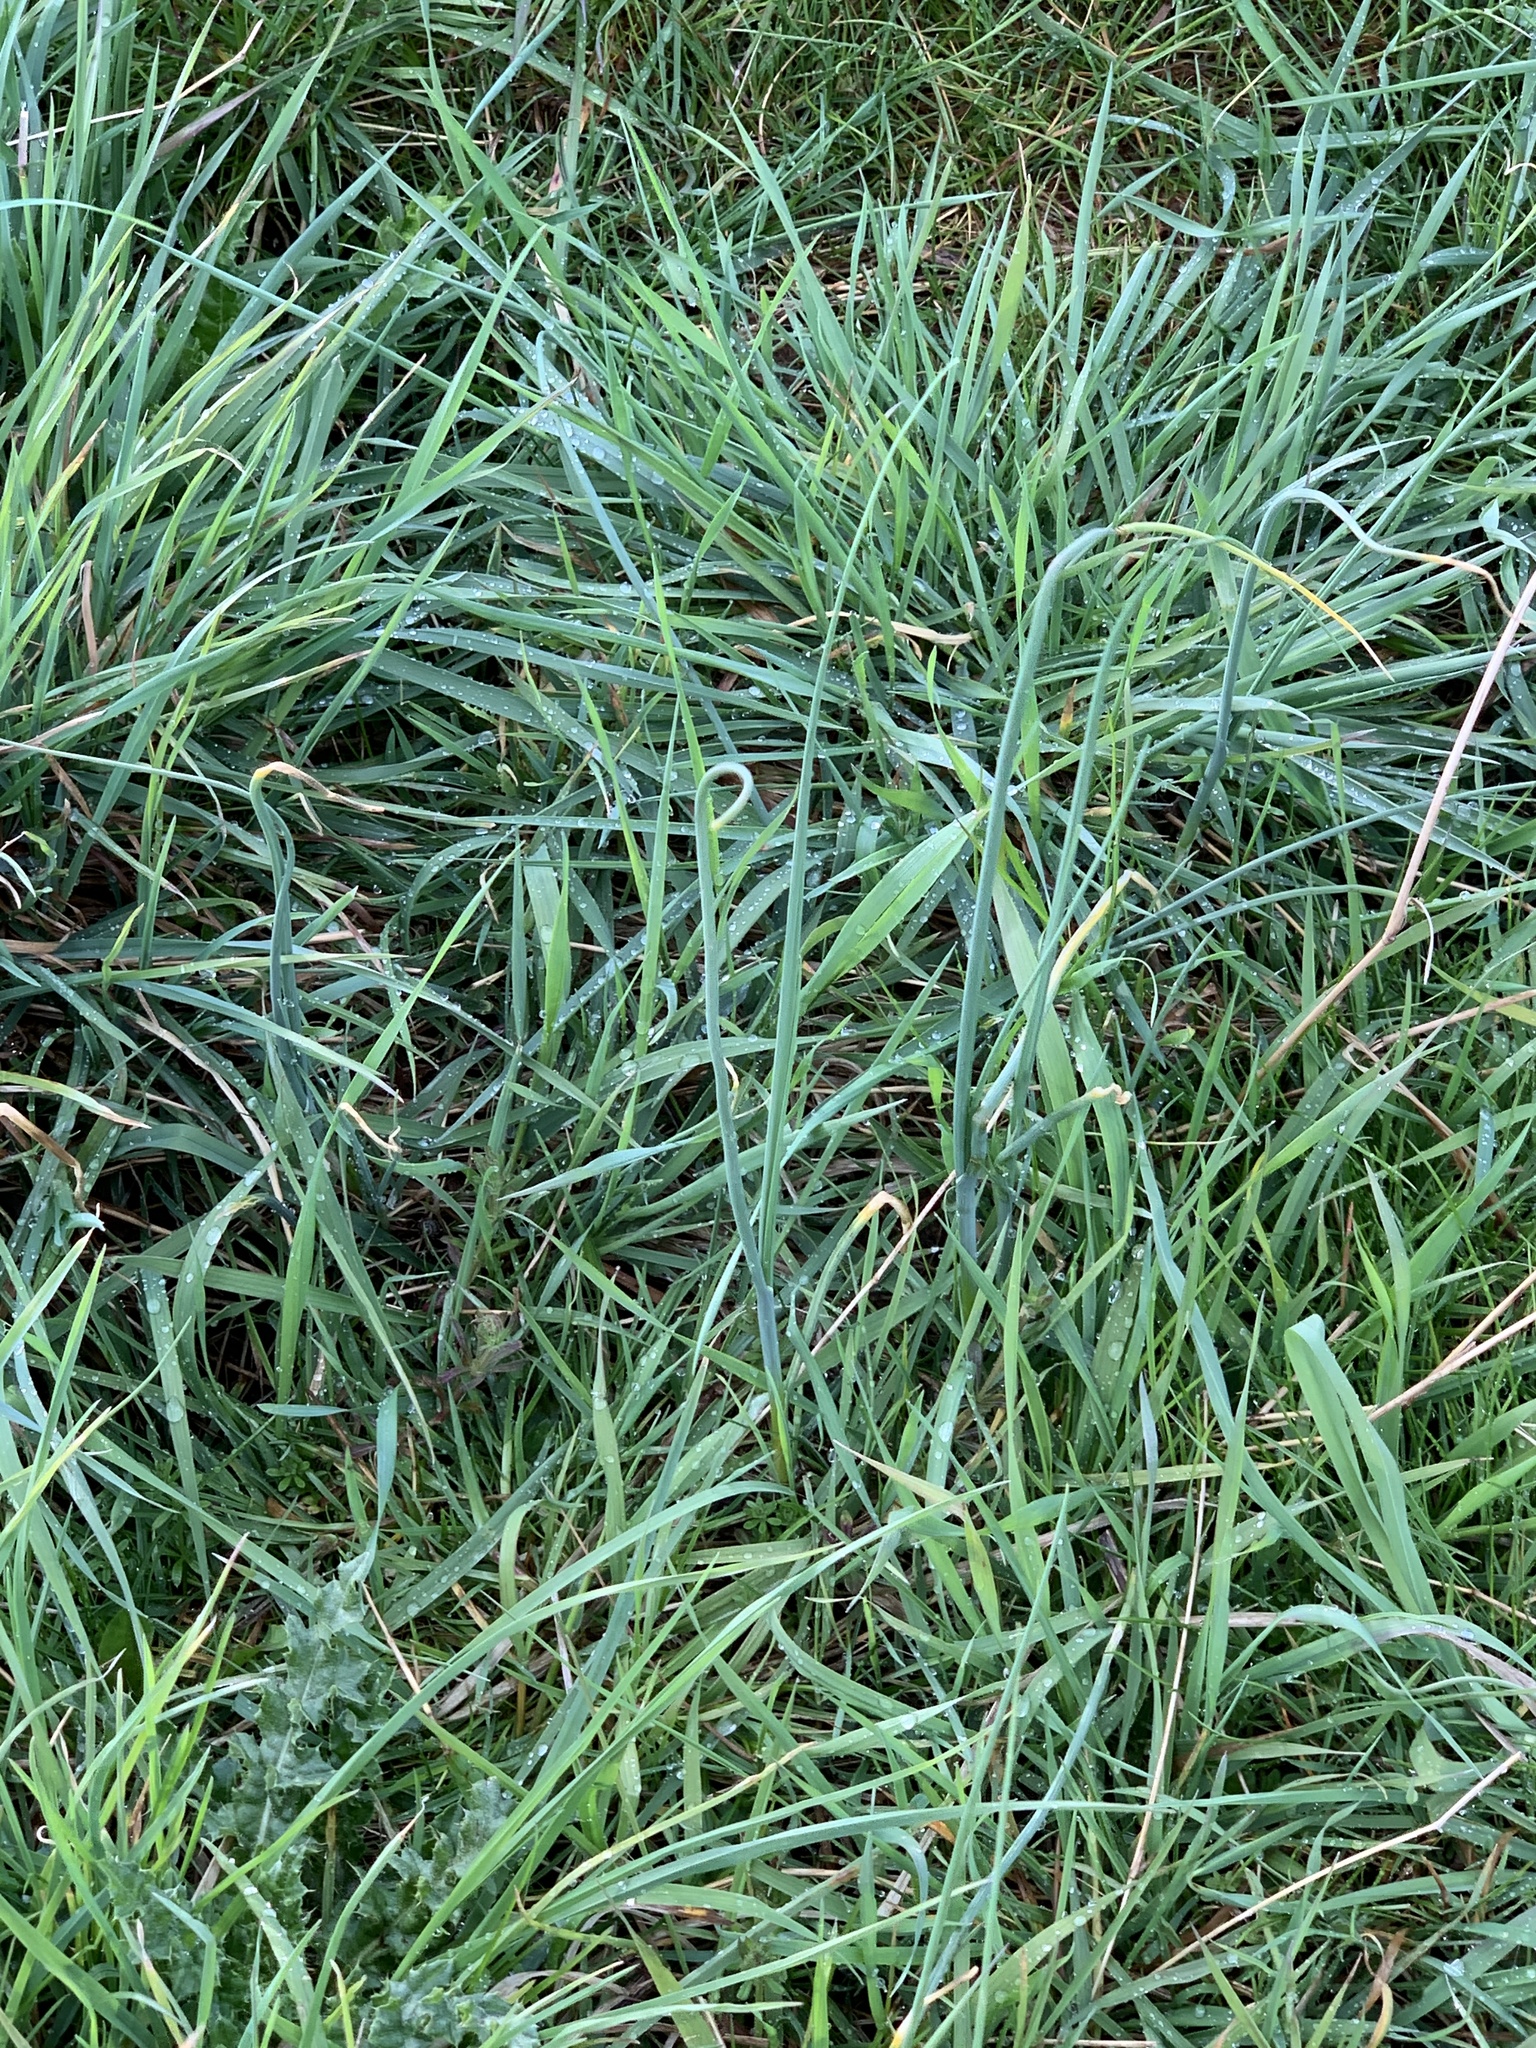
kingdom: Plantae
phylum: Tracheophyta
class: Liliopsida
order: Asparagales
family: Amaryllidaceae
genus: Allium
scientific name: Allium vineale
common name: Crow garlic
